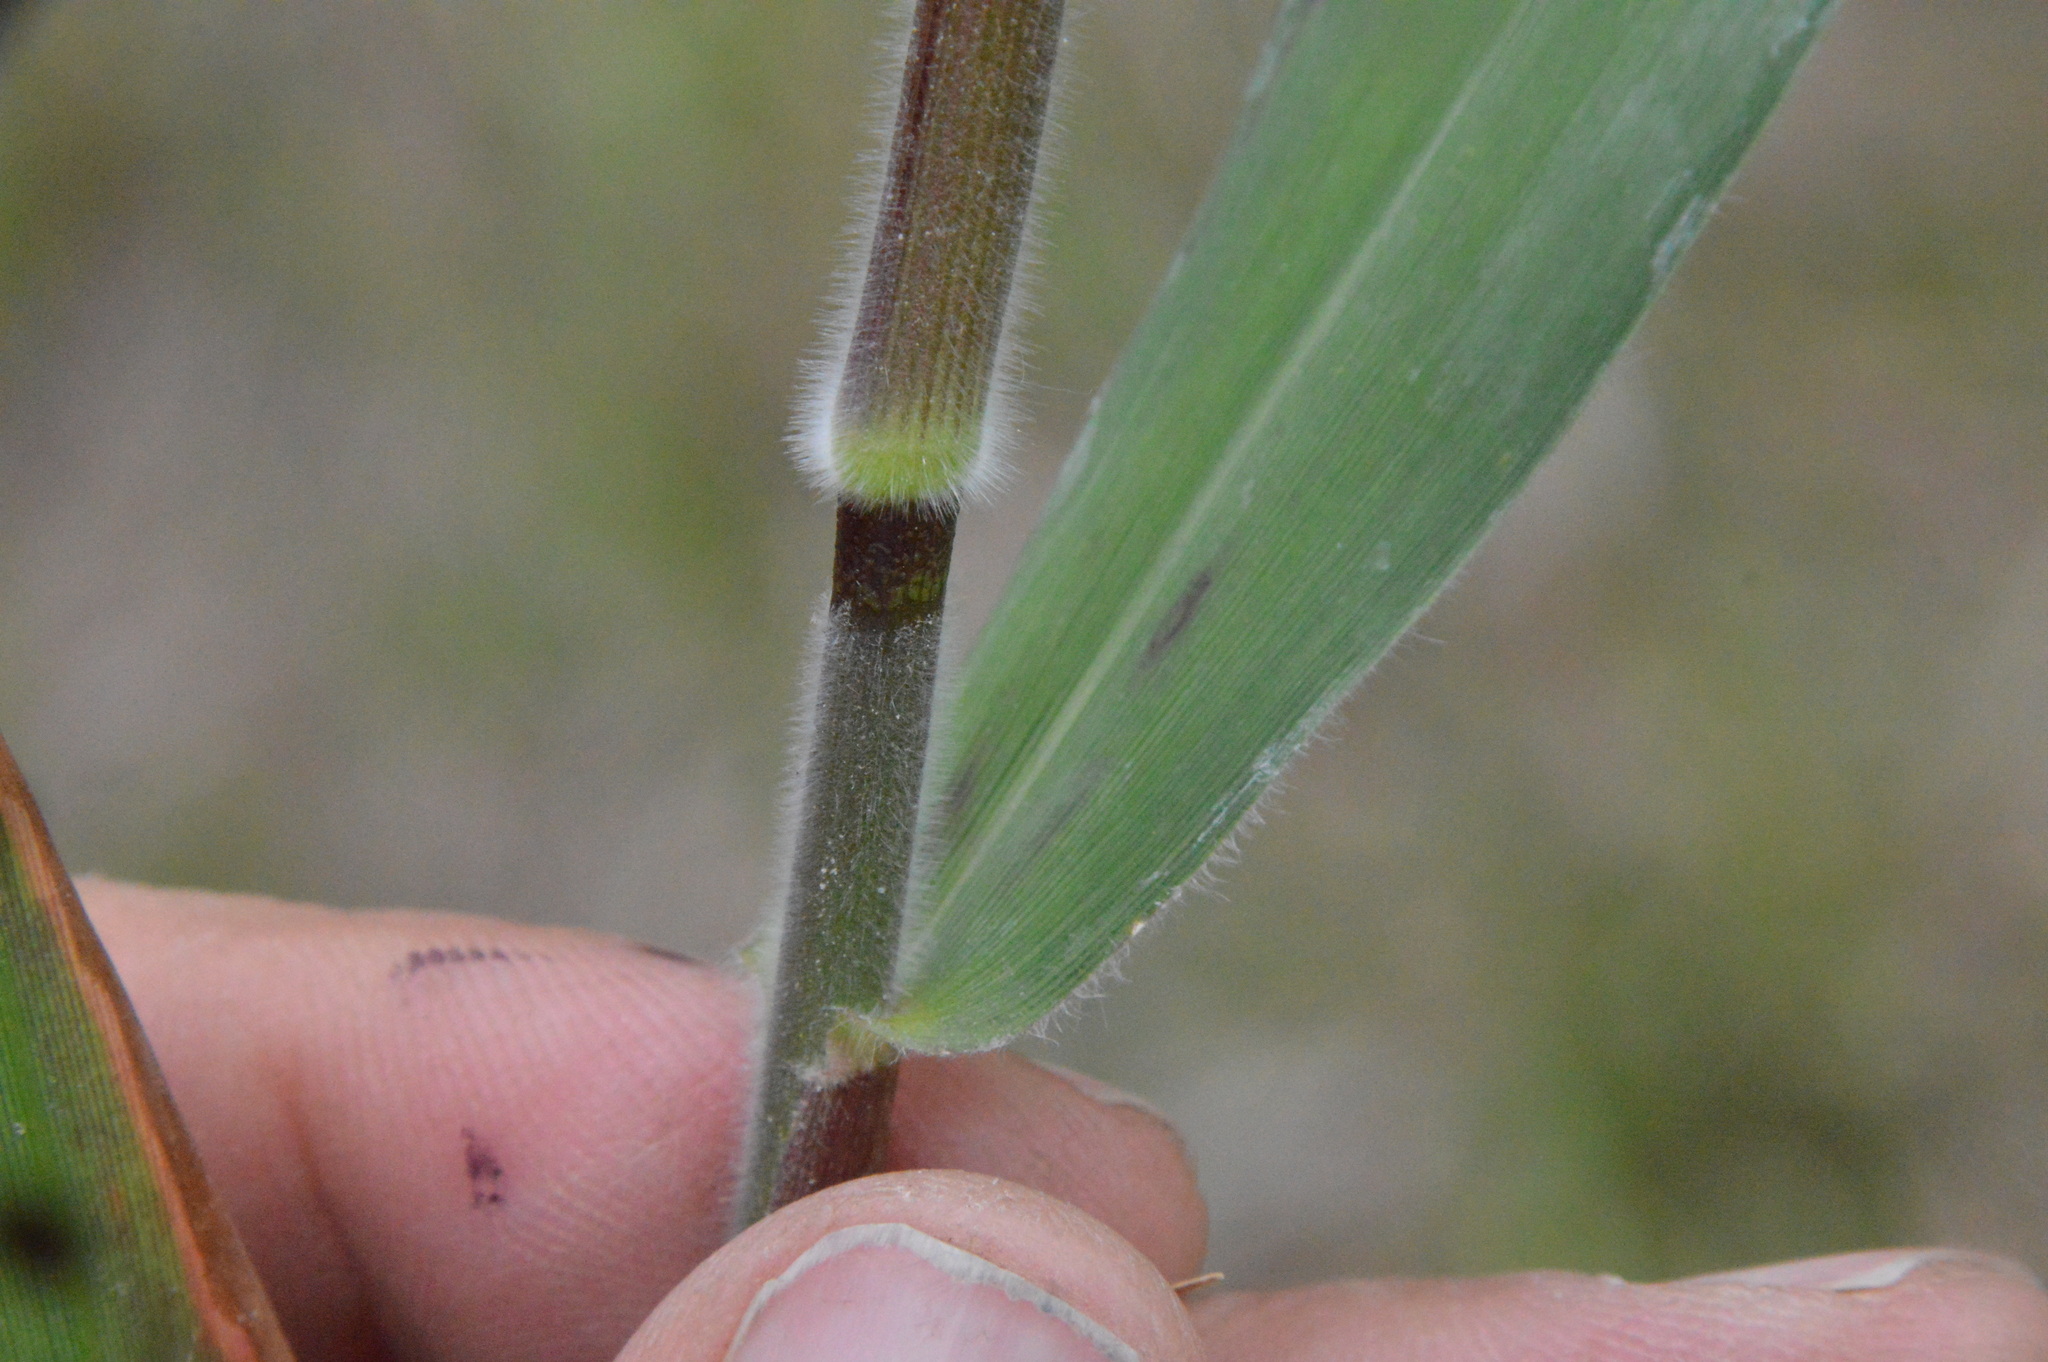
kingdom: Plantae
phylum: Tracheophyta
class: Liliopsida
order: Poales
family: Poaceae
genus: Dichanthelium
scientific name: Dichanthelium scoparium
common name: Velvety panic grass
